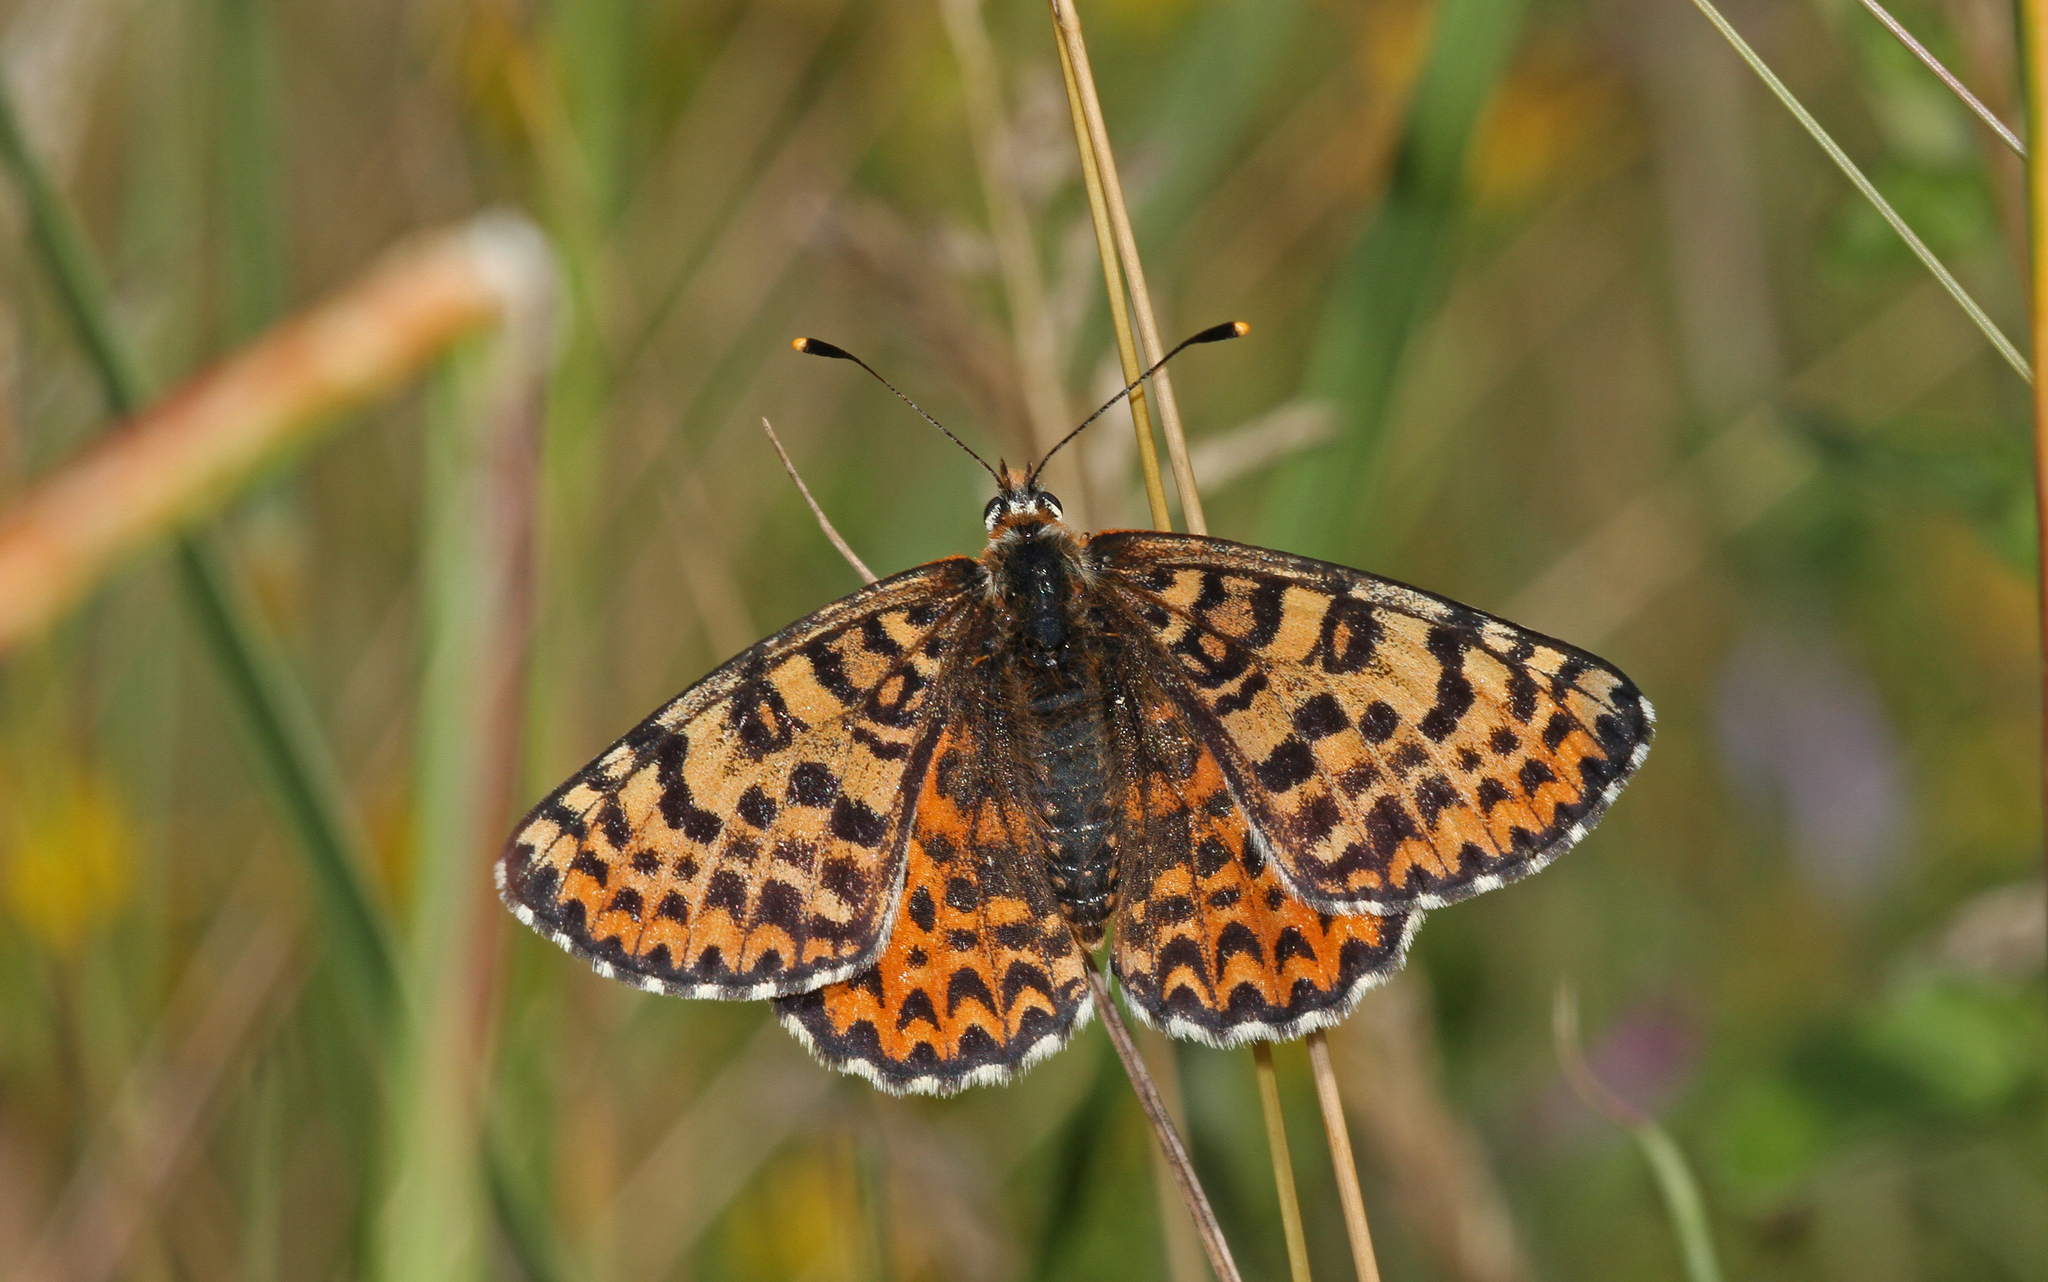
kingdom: Animalia
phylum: Arthropoda
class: Insecta
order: Lepidoptera
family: Nymphalidae
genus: Melitaea
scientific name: Melitaea didyma
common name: Spotted fritillary
